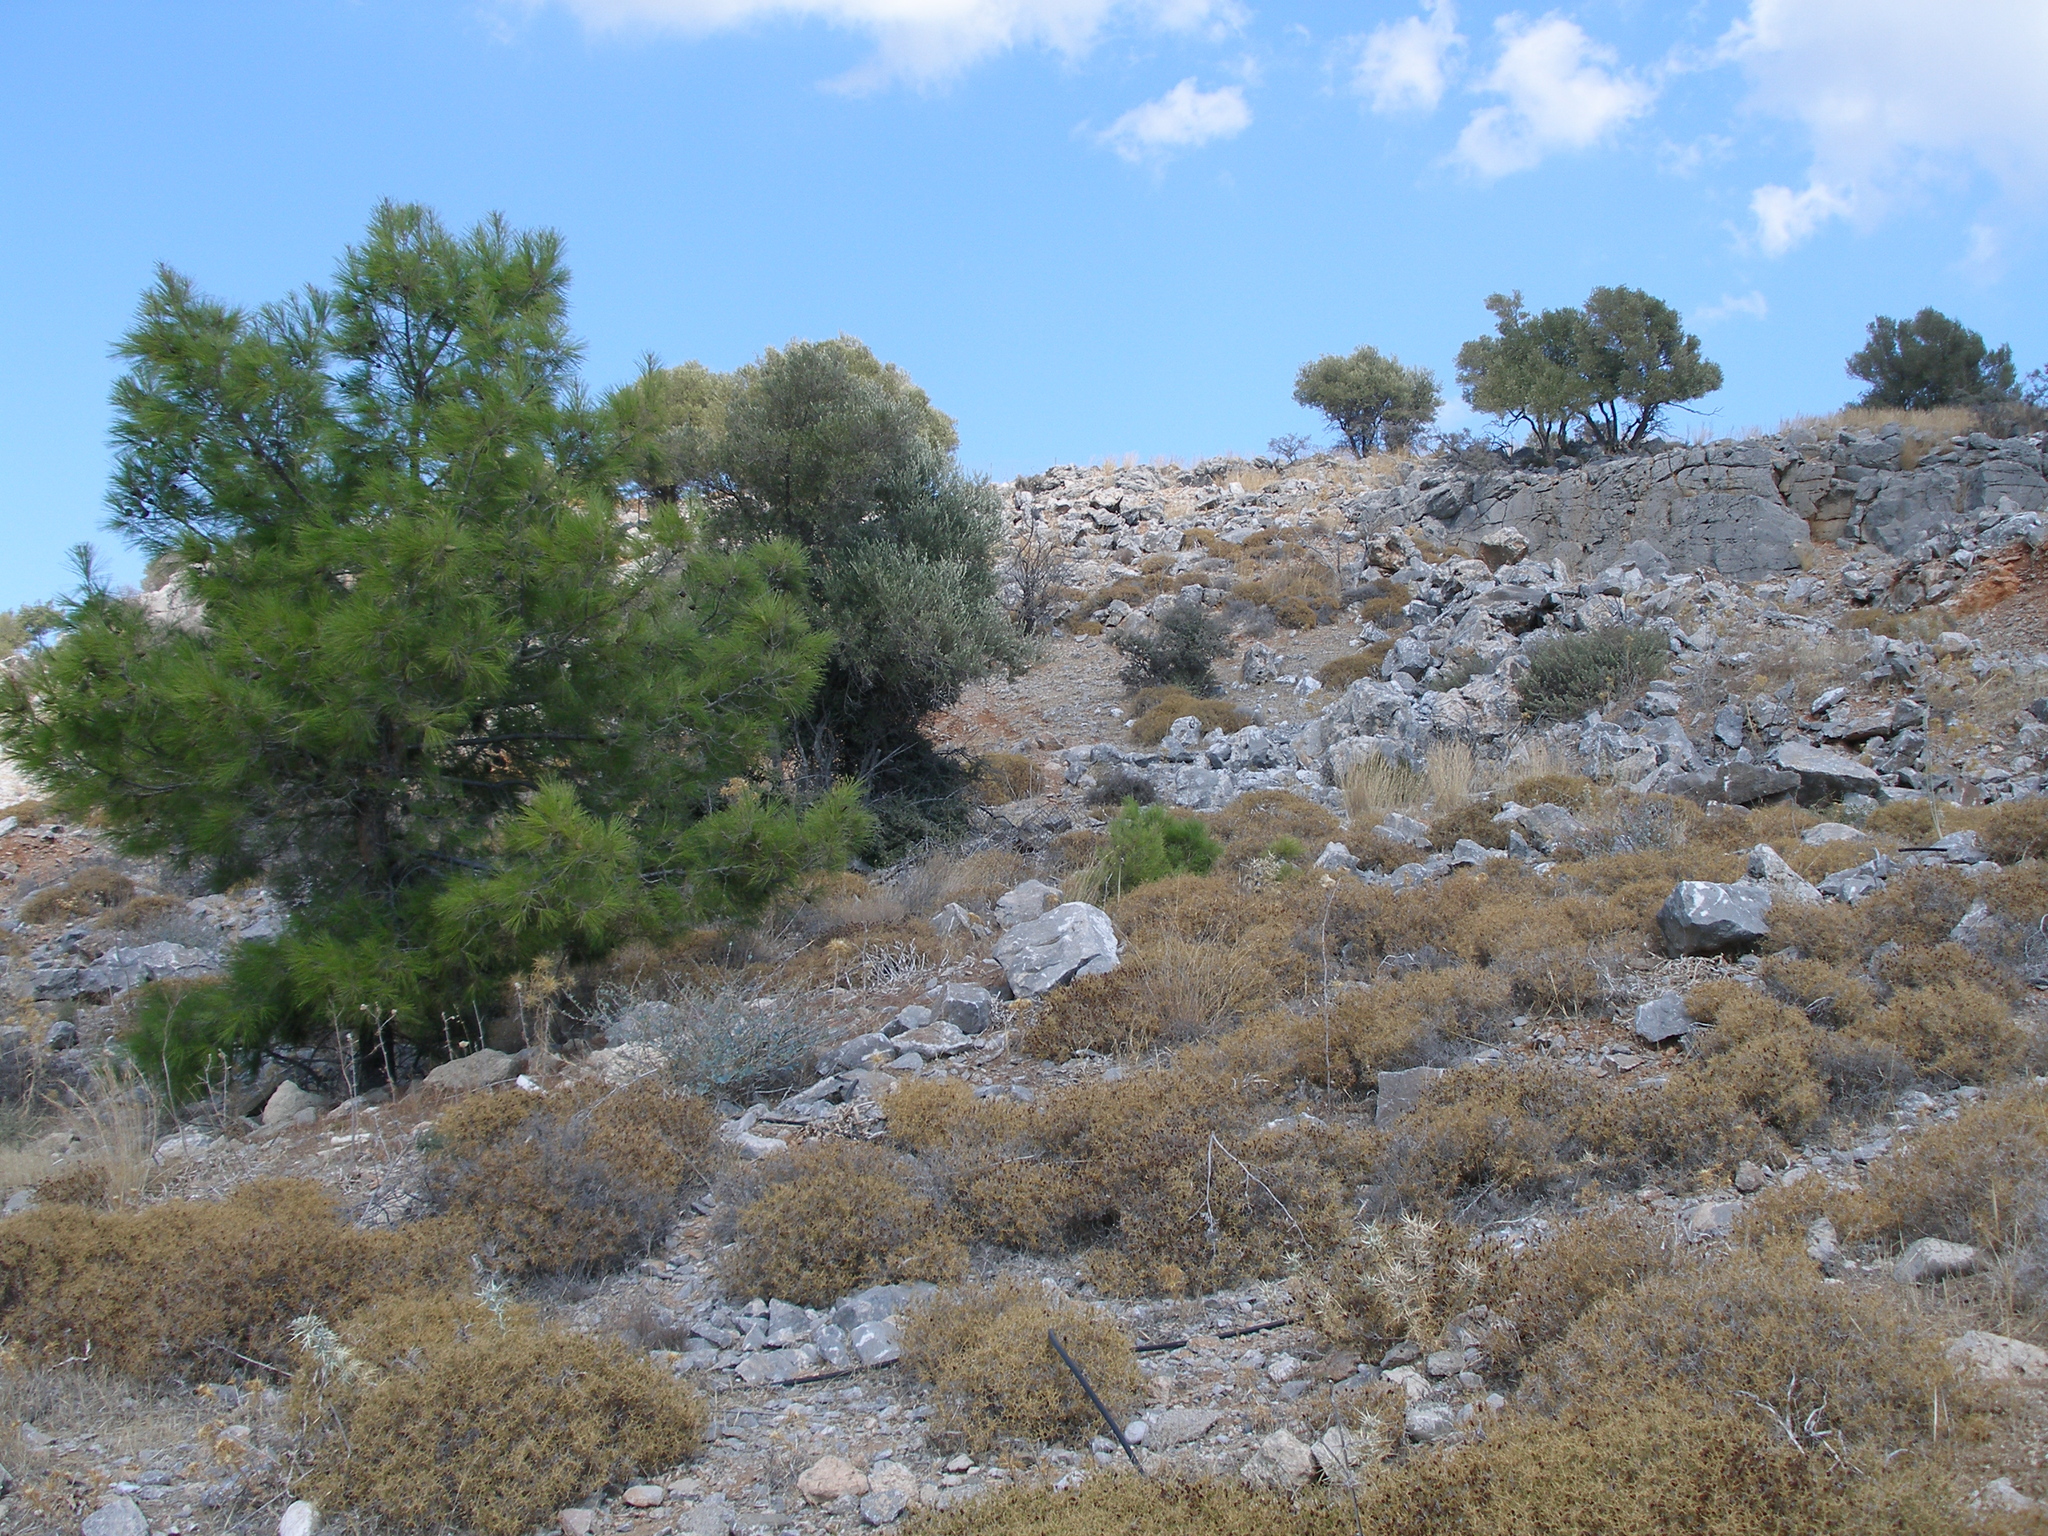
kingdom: Plantae
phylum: Tracheophyta
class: Pinopsida
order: Pinales
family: Pinaceae
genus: Pinus
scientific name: Pinus brutia
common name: Turkish pine
